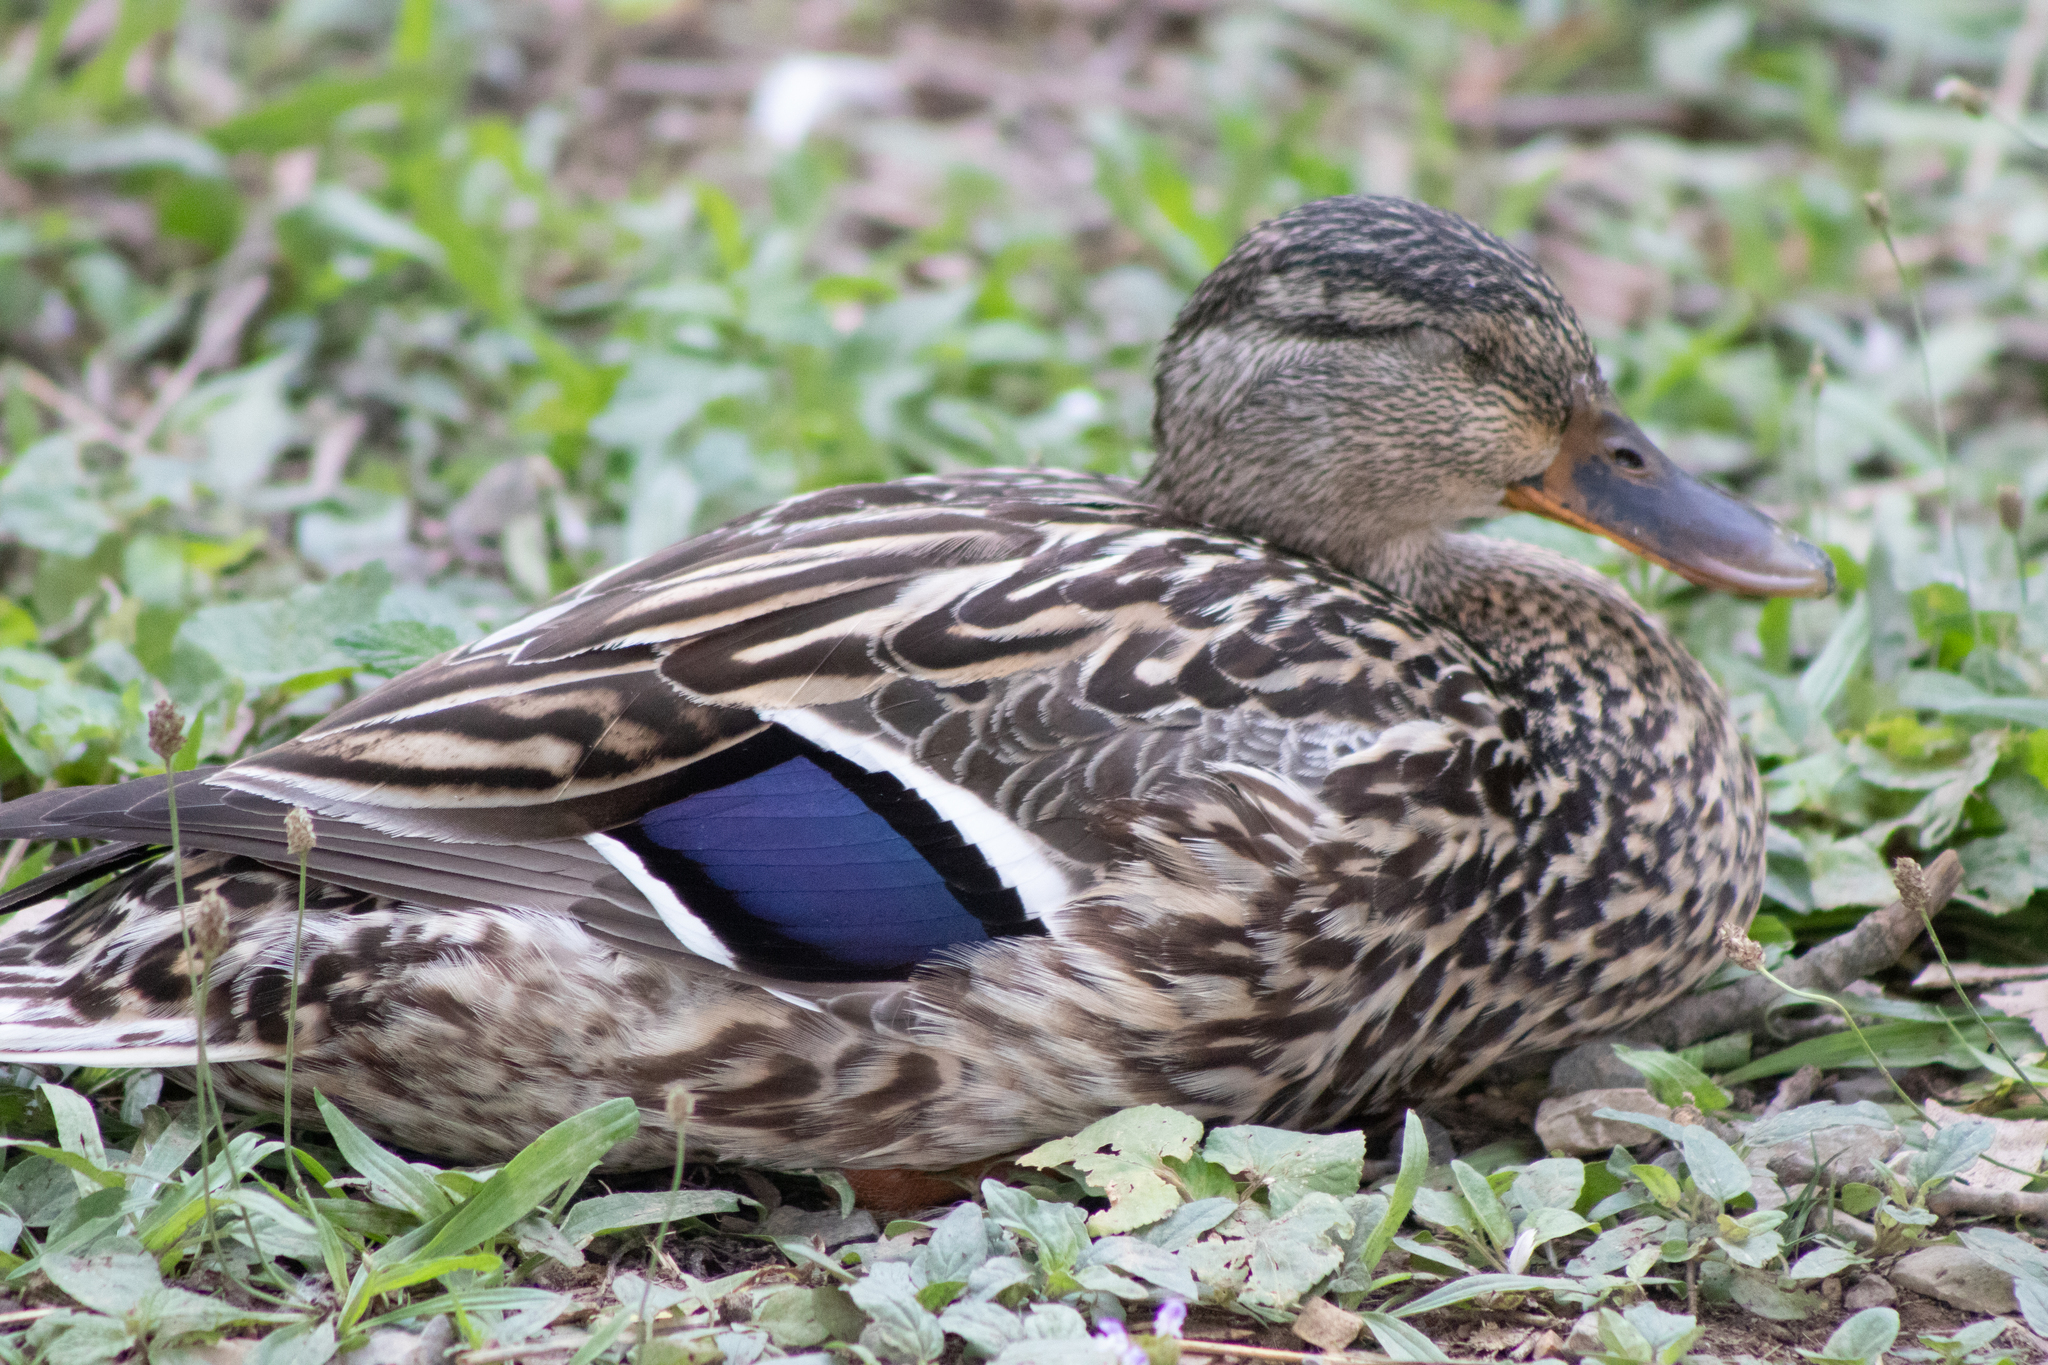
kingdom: Animalia
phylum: Chordata
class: Aves
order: Anseriformes
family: Anatidae
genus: Anas
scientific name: Anas platyrhynchos
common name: Mallard
